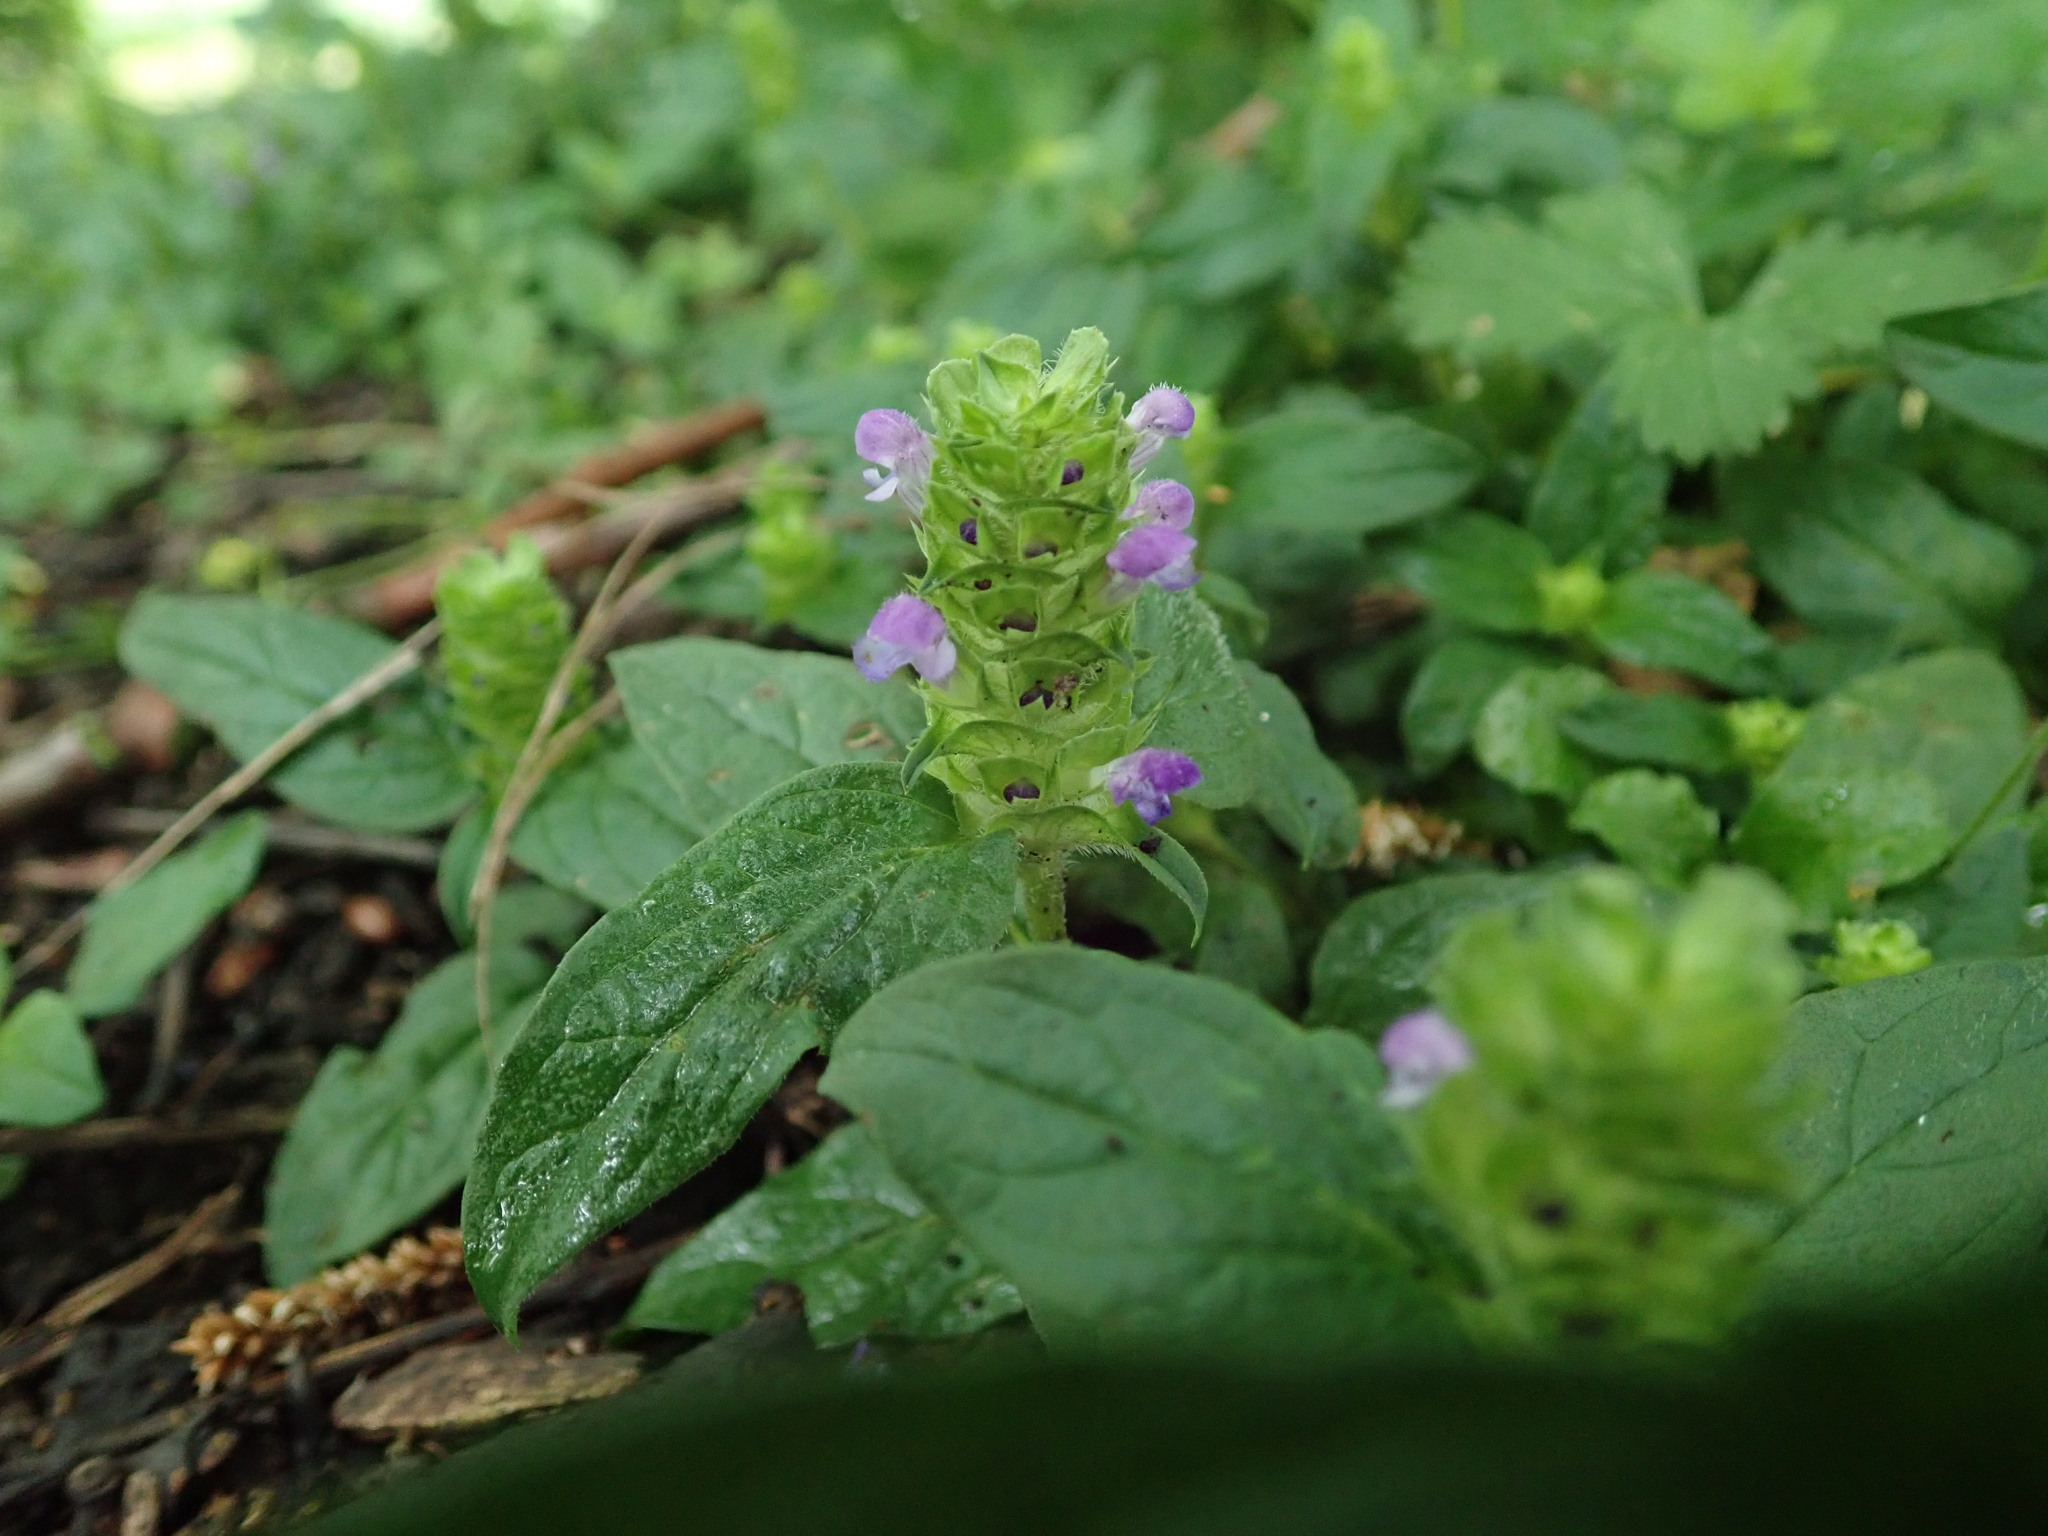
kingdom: Plantae
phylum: Tracheophyta
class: Magnoliopsida
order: Lamiales
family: Lamiaceae
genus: Prunella
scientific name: Prunella vulgaris
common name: Heal-all
